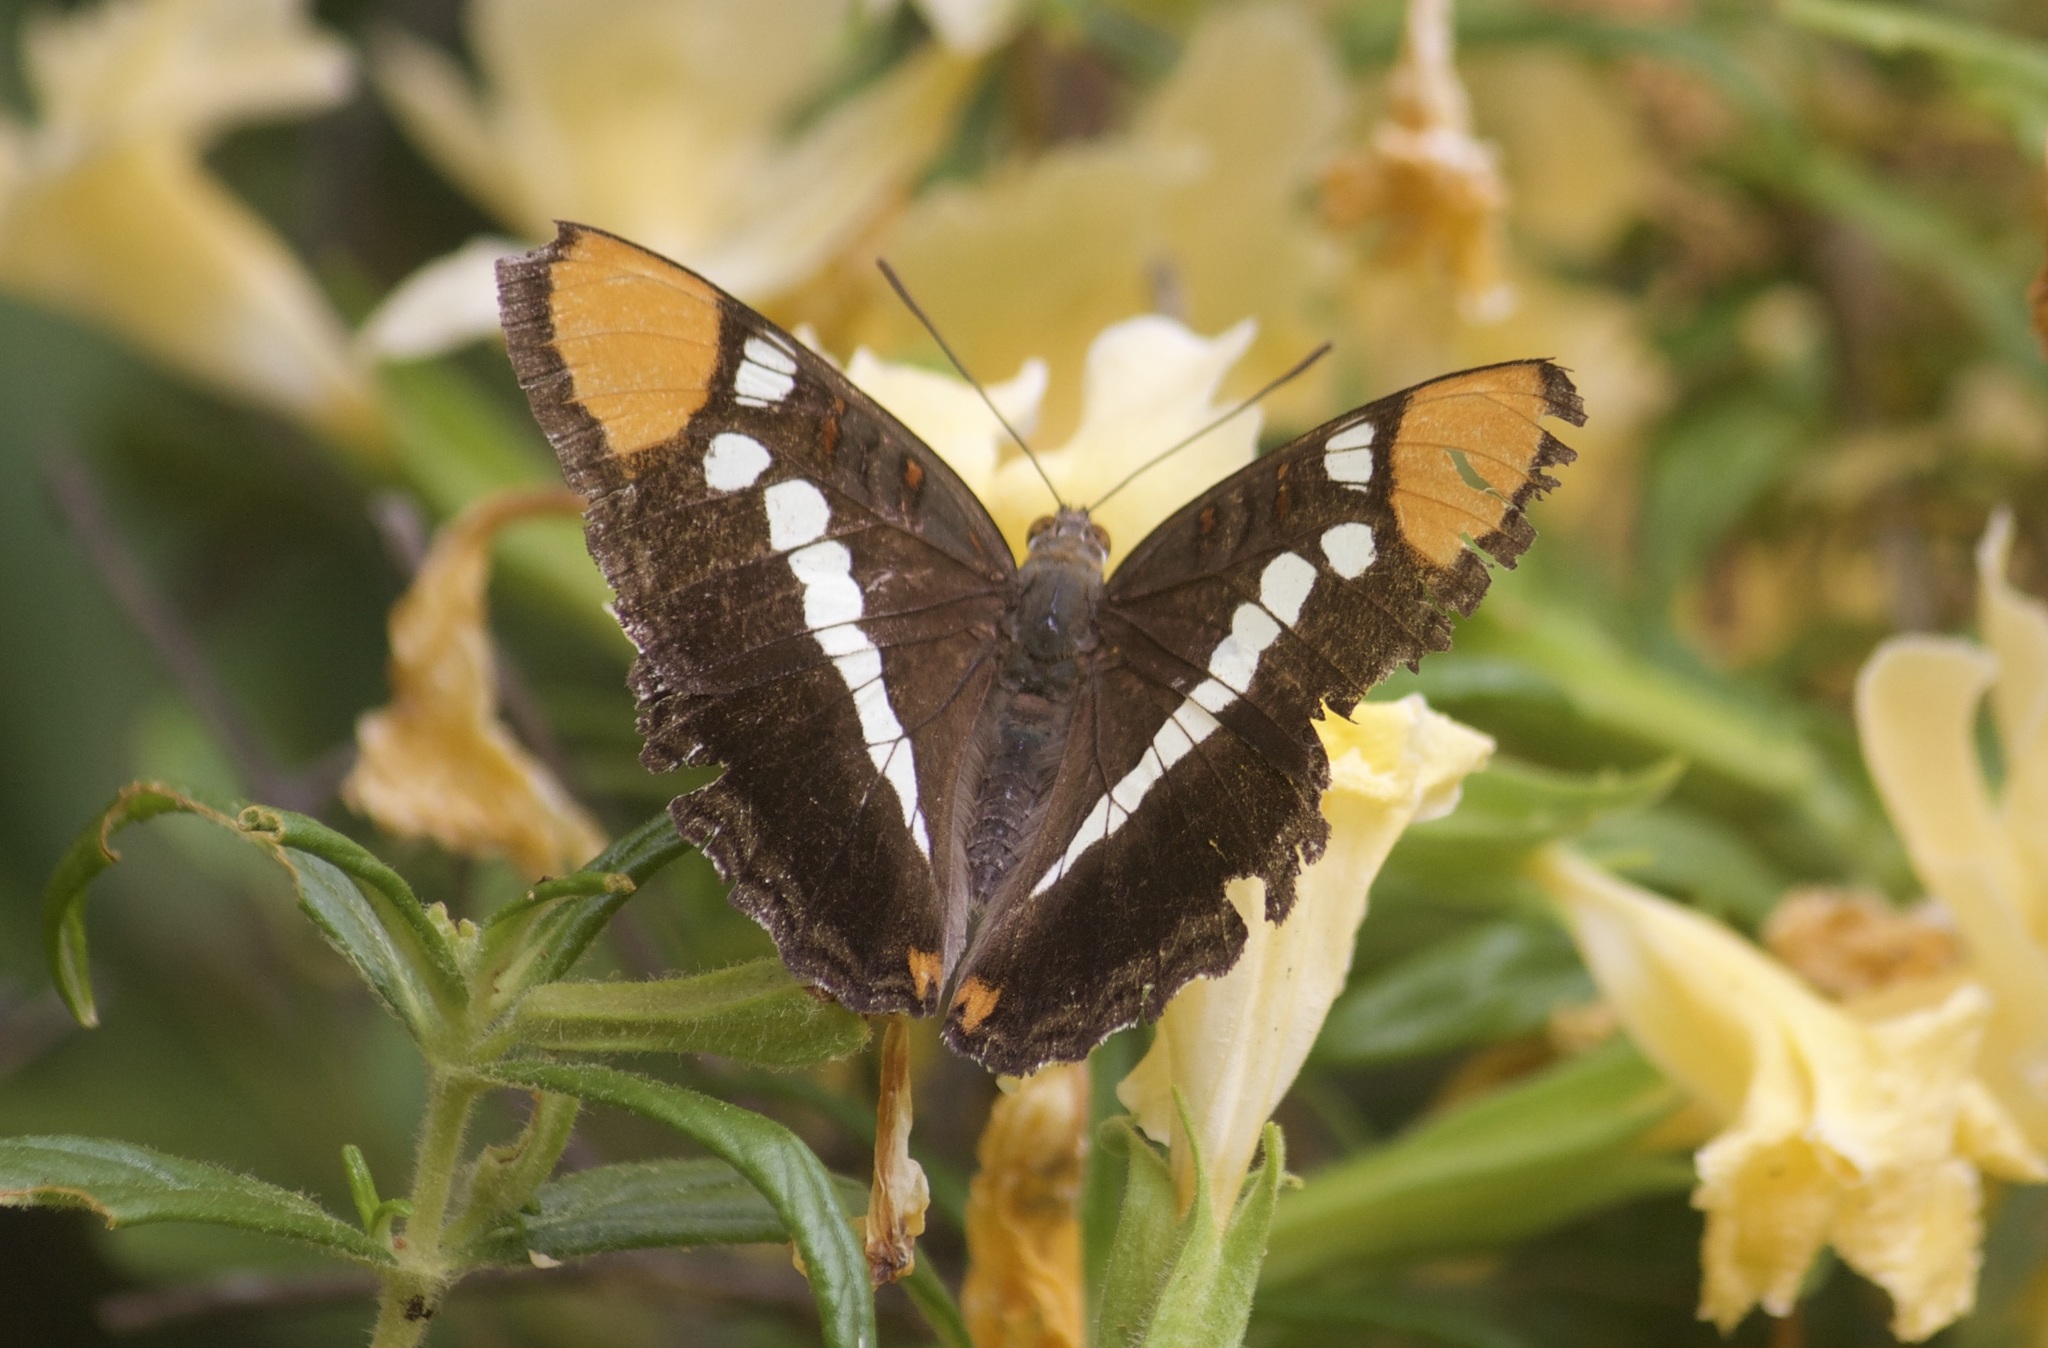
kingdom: Animalia
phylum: Arthropoda
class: Insecta
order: Lepidoptera
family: Nymphalidae
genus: Limenitis
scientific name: Limenitis bredowii
